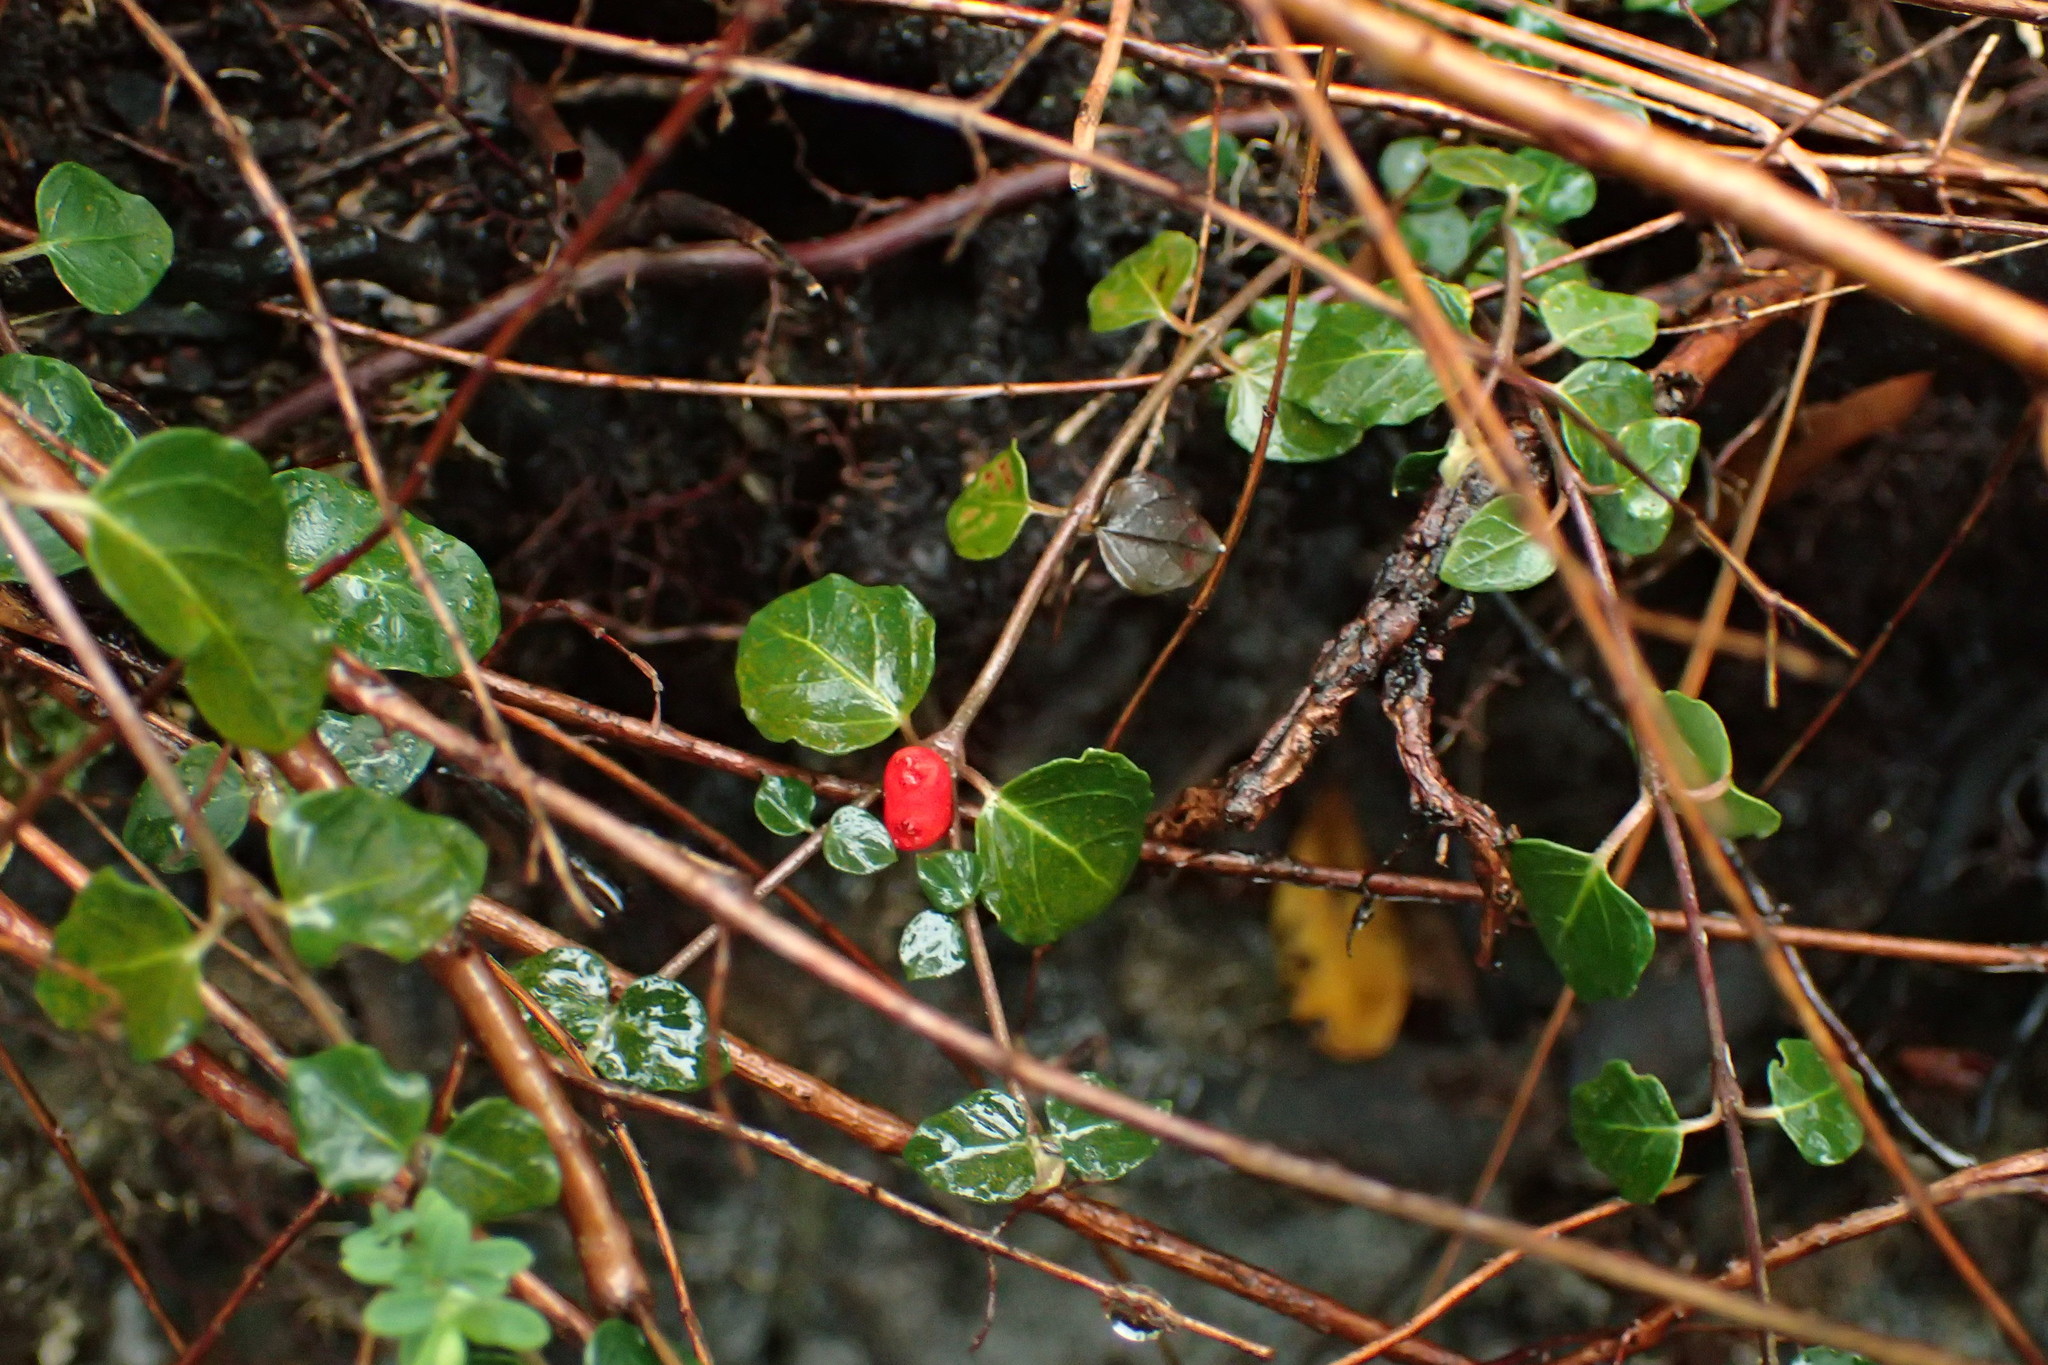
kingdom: Plantae
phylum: Tracheophyta
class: Magnoliopsida
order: Gentianales
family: Rubiaceae
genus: Mitchella
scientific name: Mitchella repens
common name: Partridge-berry
